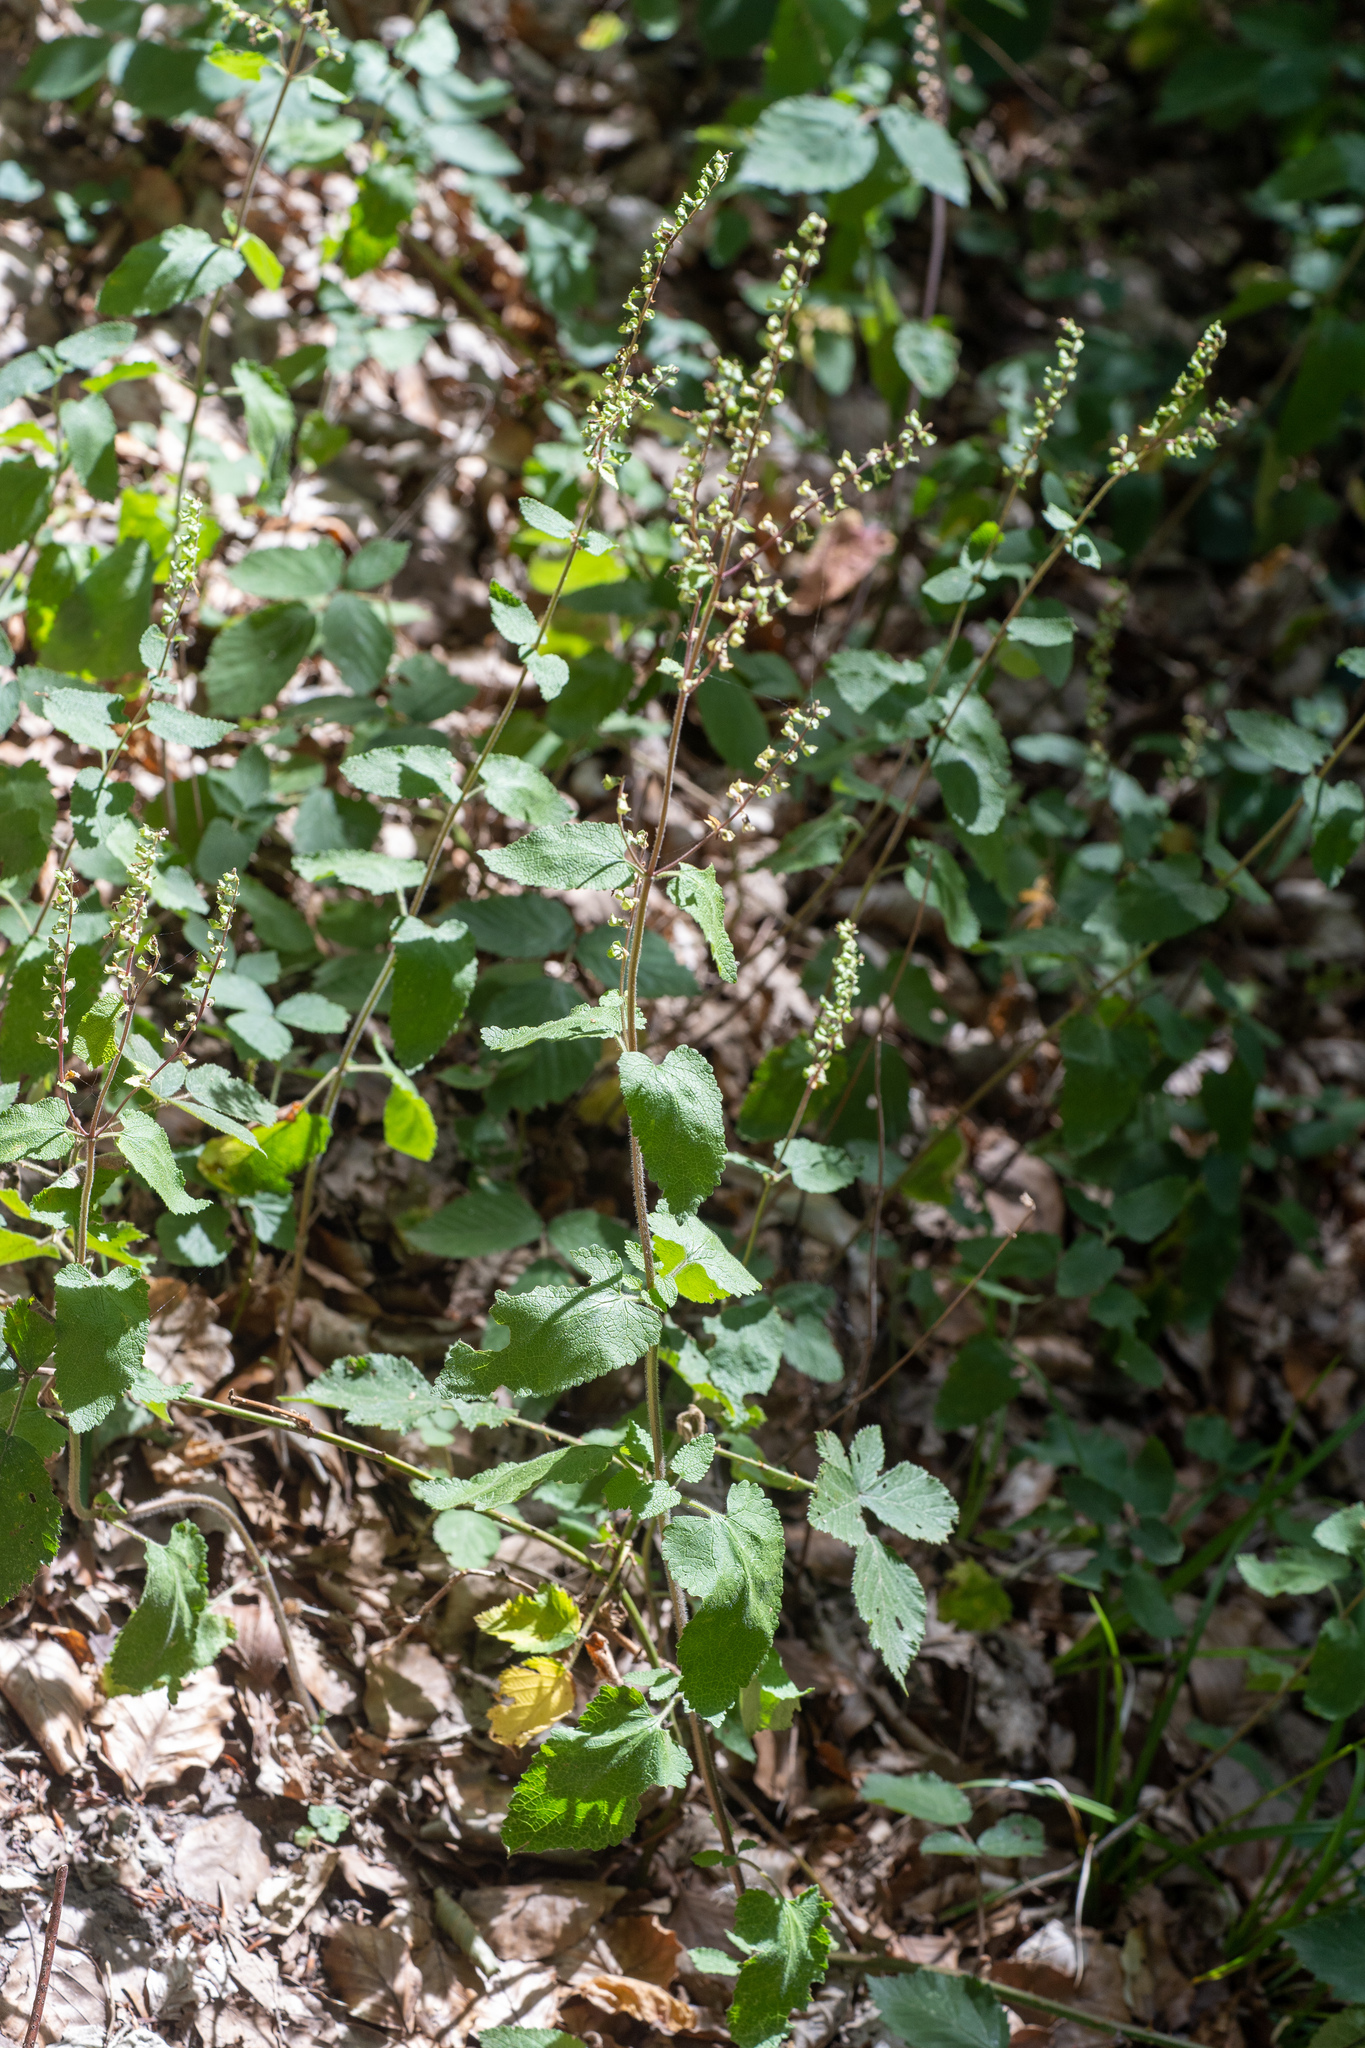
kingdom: Plantae
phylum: Tracheophyta
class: Magnoliopsida
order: Lamiales
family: Lamiaceae
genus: Teucrium
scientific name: Teucrium scorodonia
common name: Woodland germander
